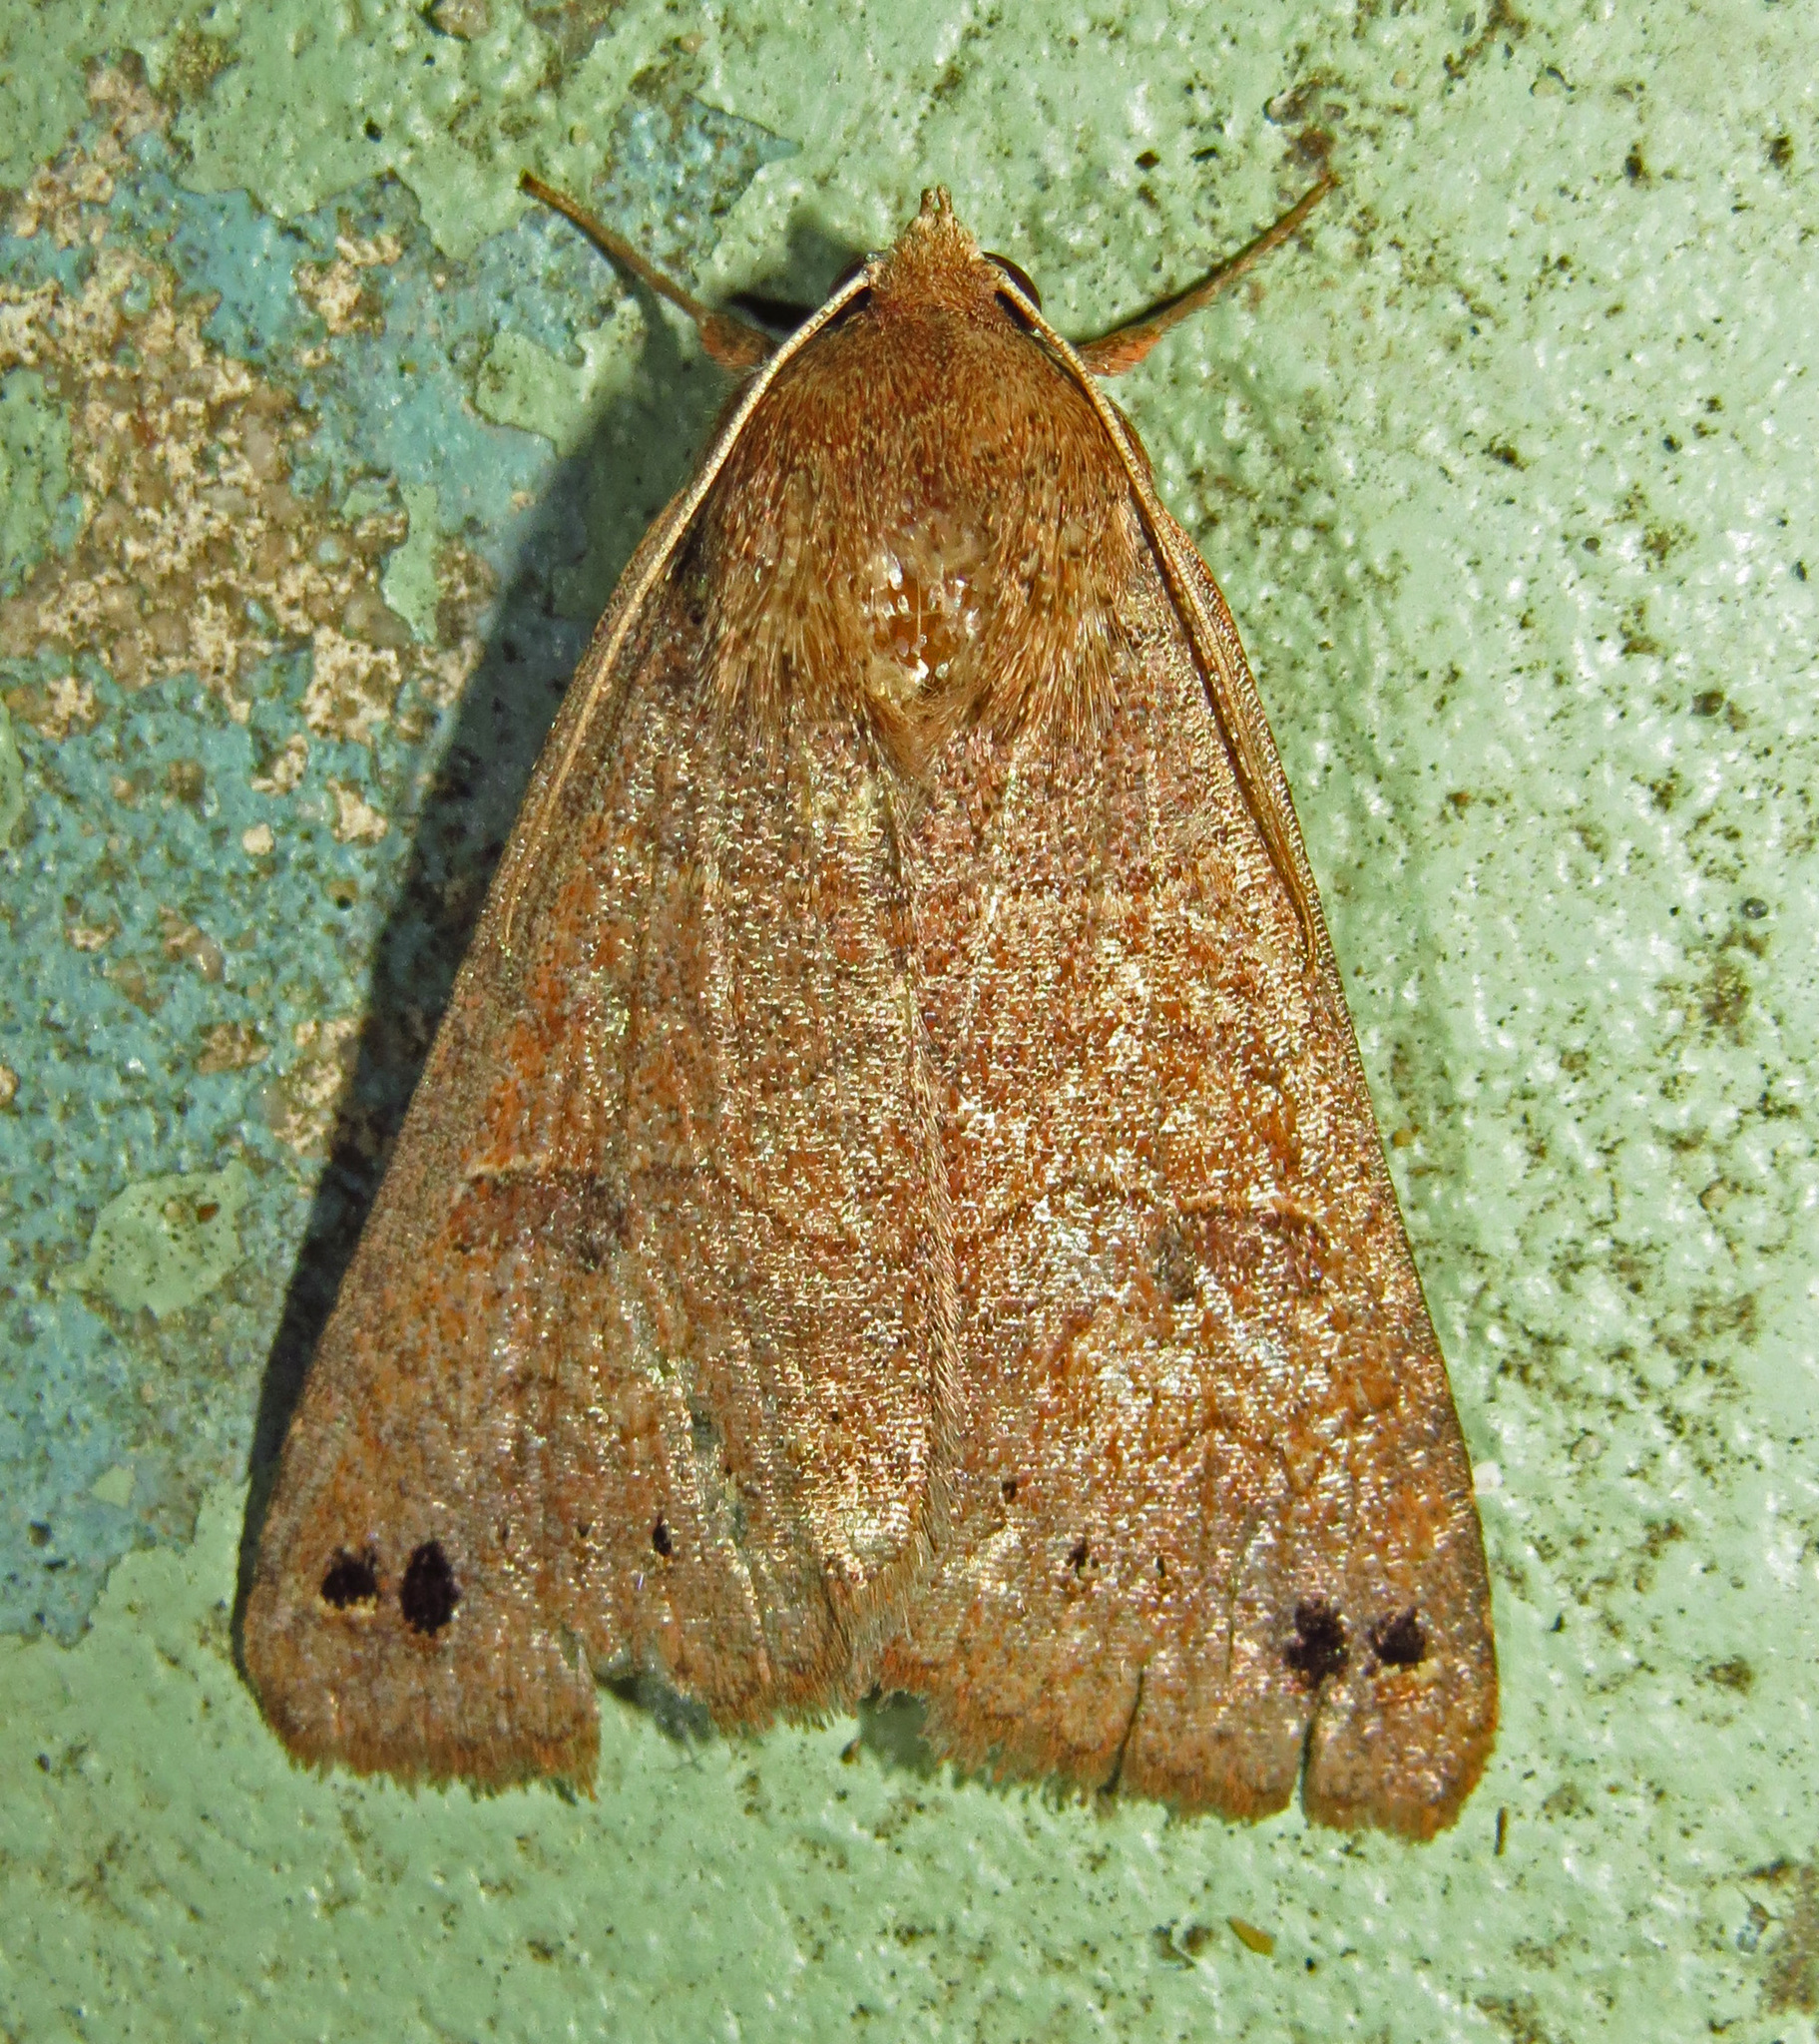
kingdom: Animalia
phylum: Arthropoda
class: Insecta
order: Lepidoptera
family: Erebidae
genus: Cissusa
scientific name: Cissusa spadix
